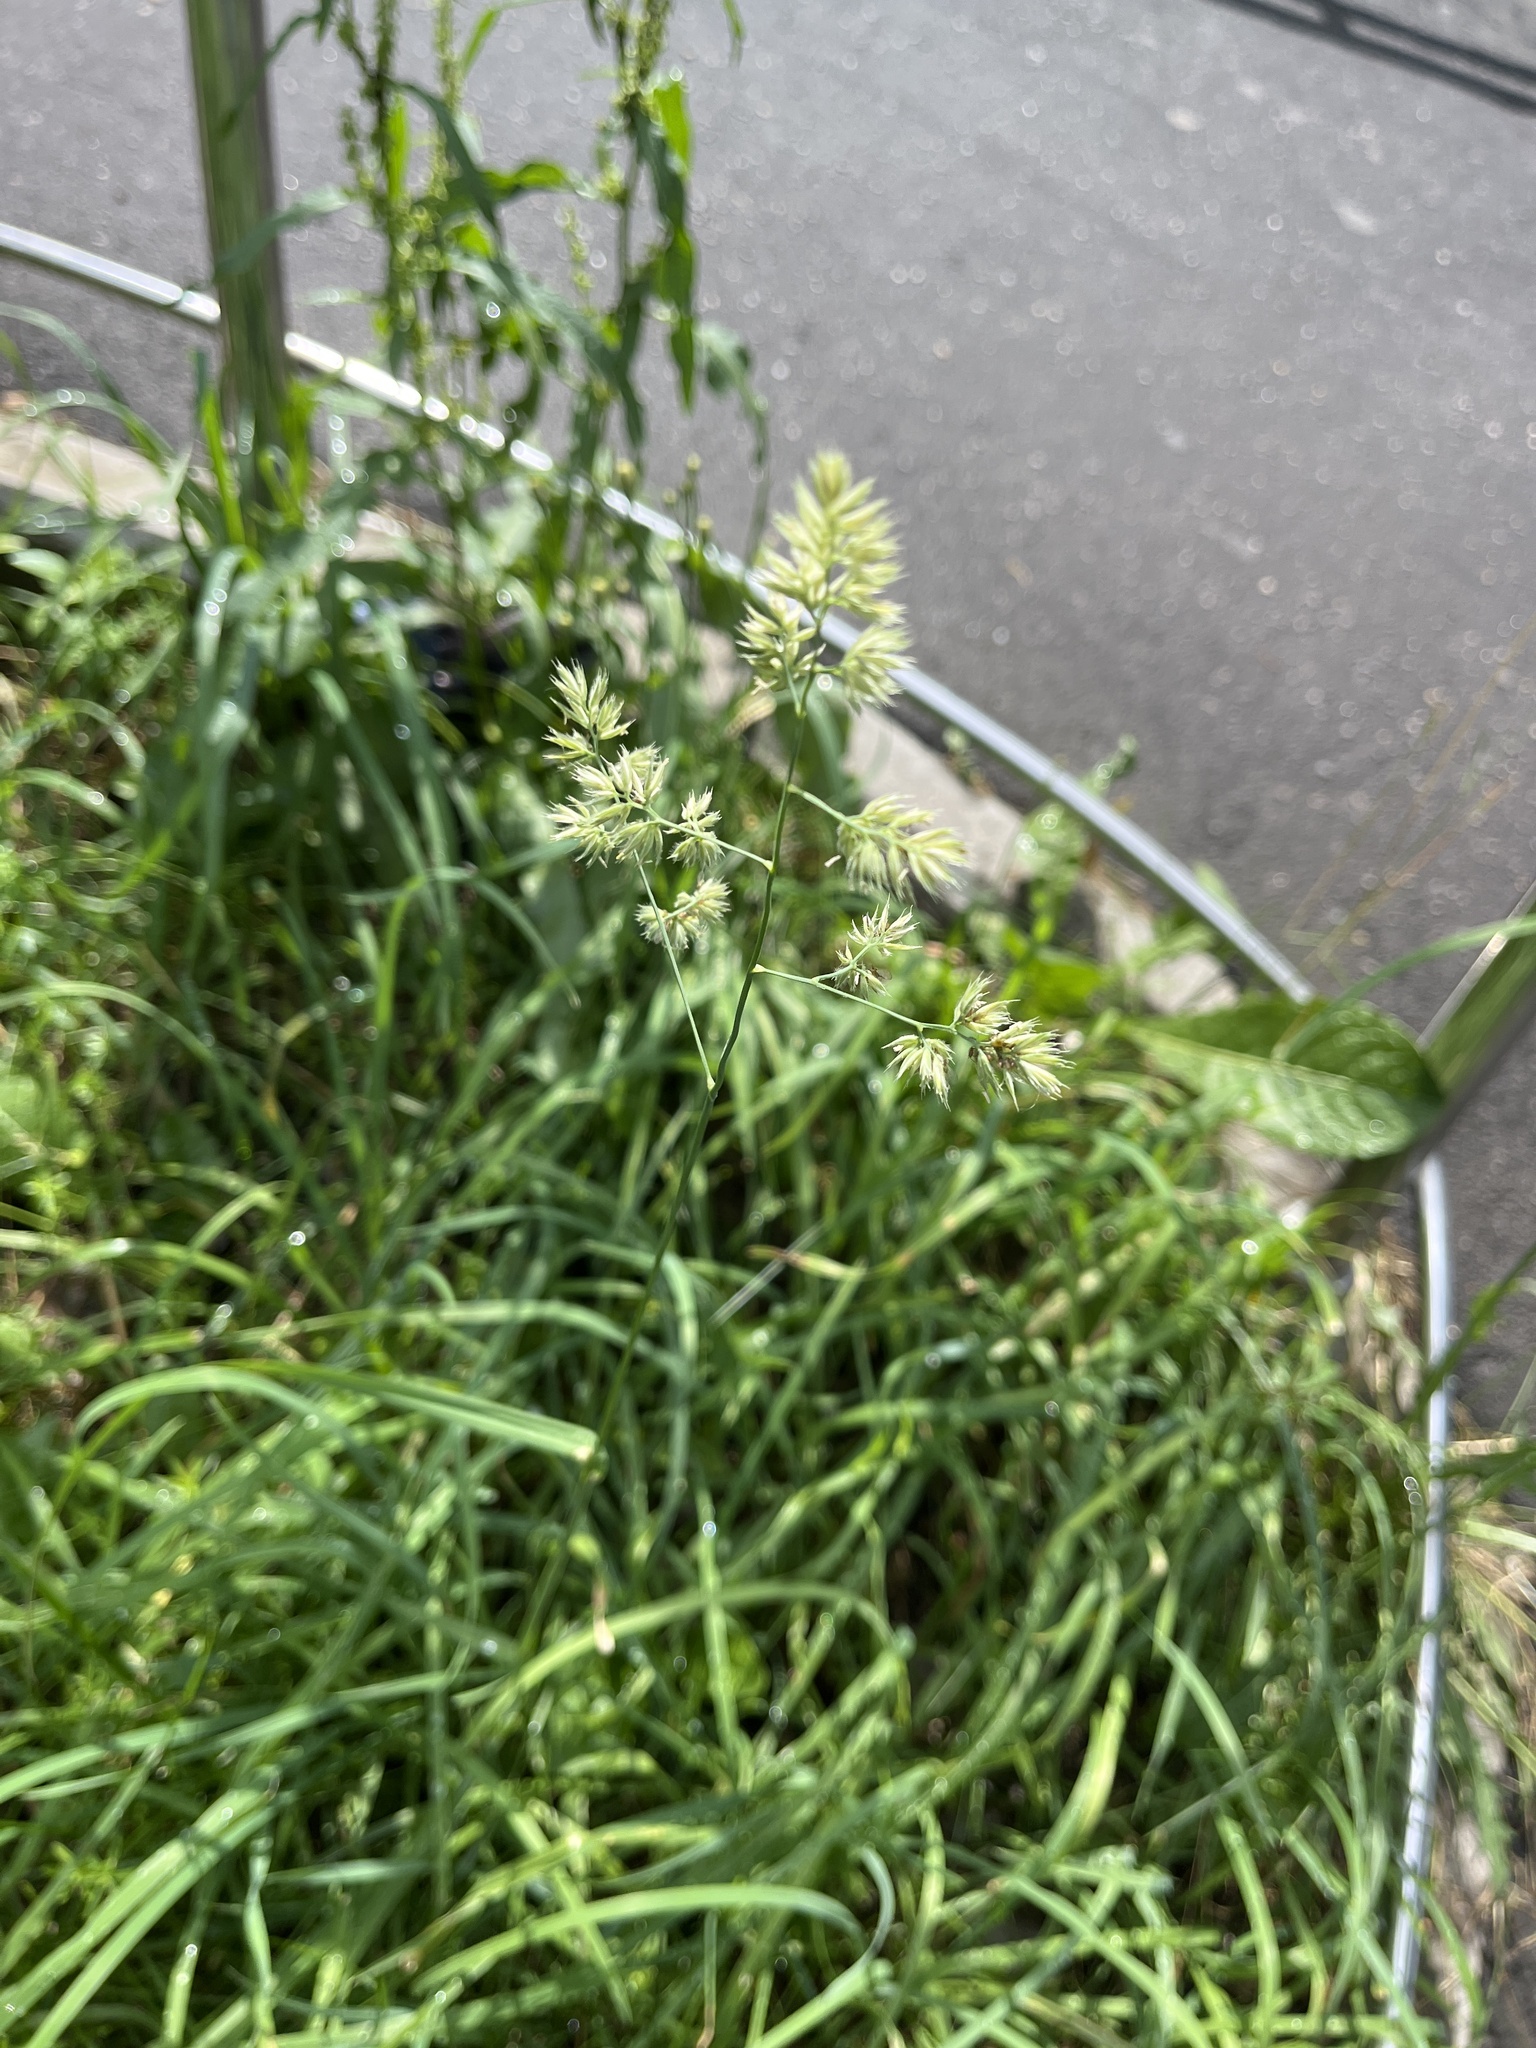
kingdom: Plantae
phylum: Tracheophyta
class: Liliopsida
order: Poales
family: Poaceae
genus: Dactylis
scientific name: Dactylis glomerata
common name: Orchardgrass
